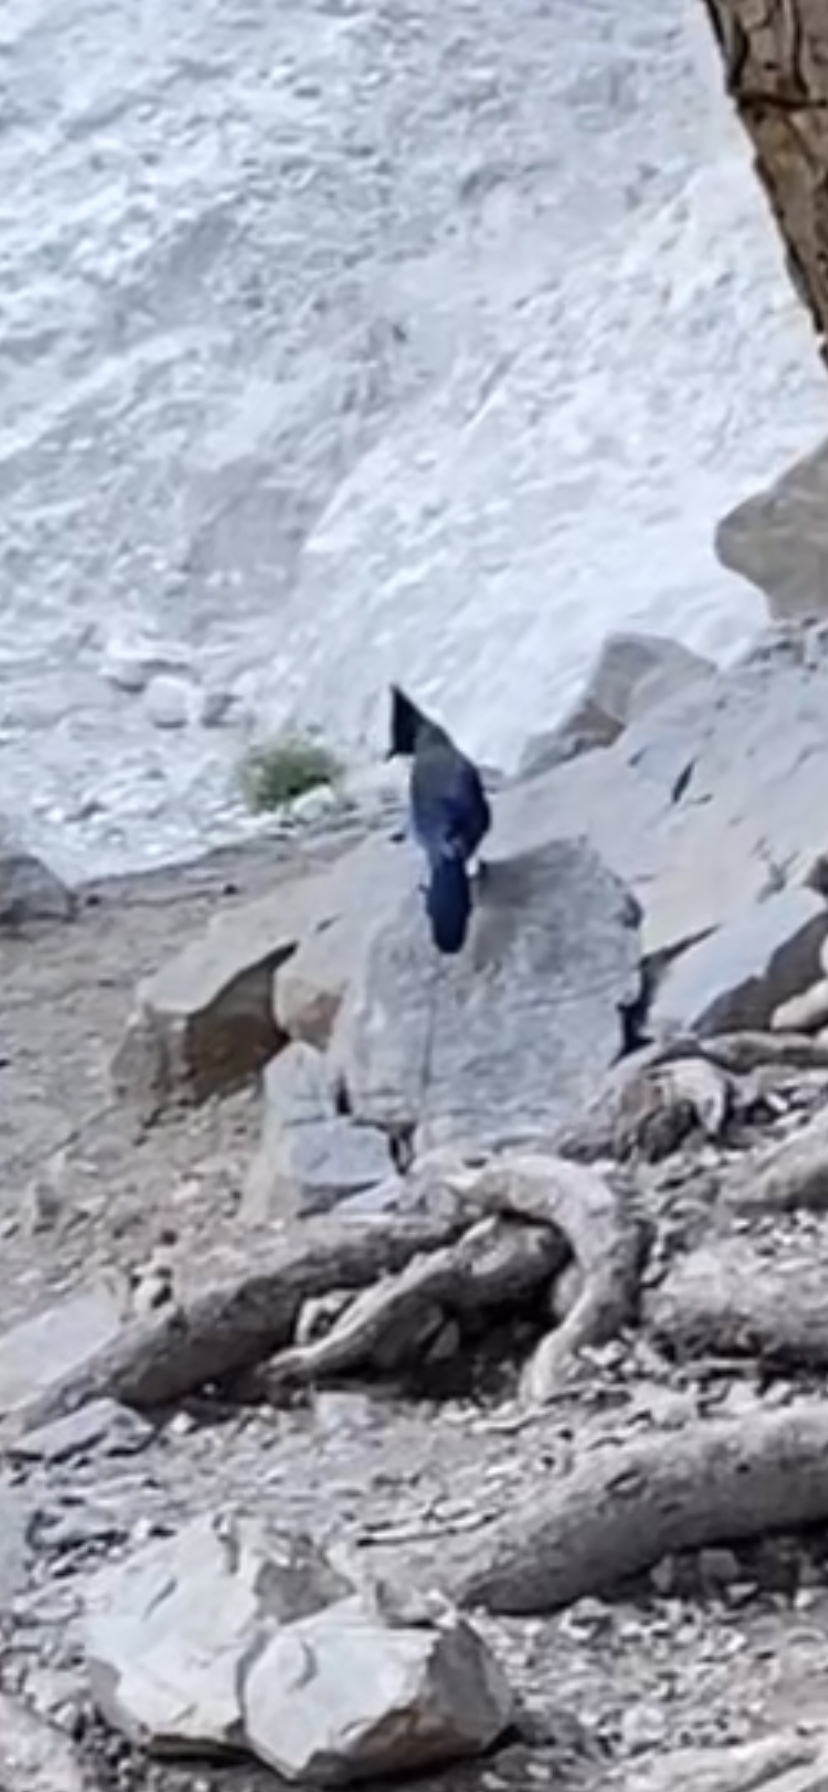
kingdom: Animalia
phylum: Chordata
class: Aves
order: Passeriformes
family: Corvidae
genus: Cyanocitta
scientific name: Cyanocitta stelleri
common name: Steller's jay
